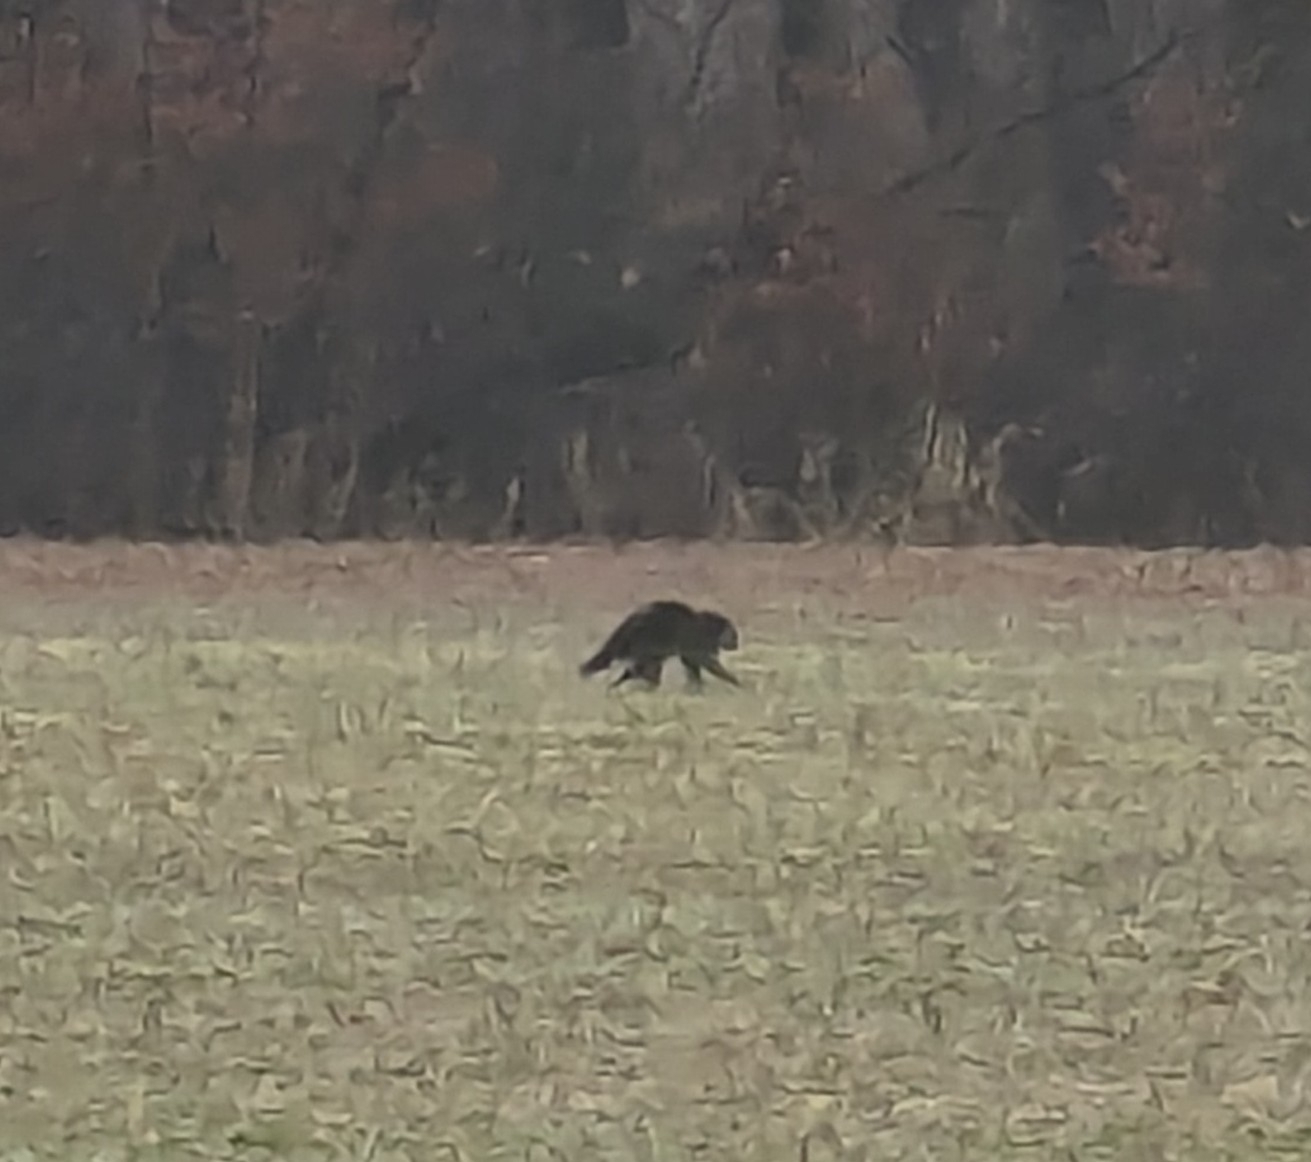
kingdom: Animalia
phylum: Chordata
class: Mammalia
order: Carnivora
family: Procyonidae
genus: Procyon
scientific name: Procyon lotor
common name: Raccoon
